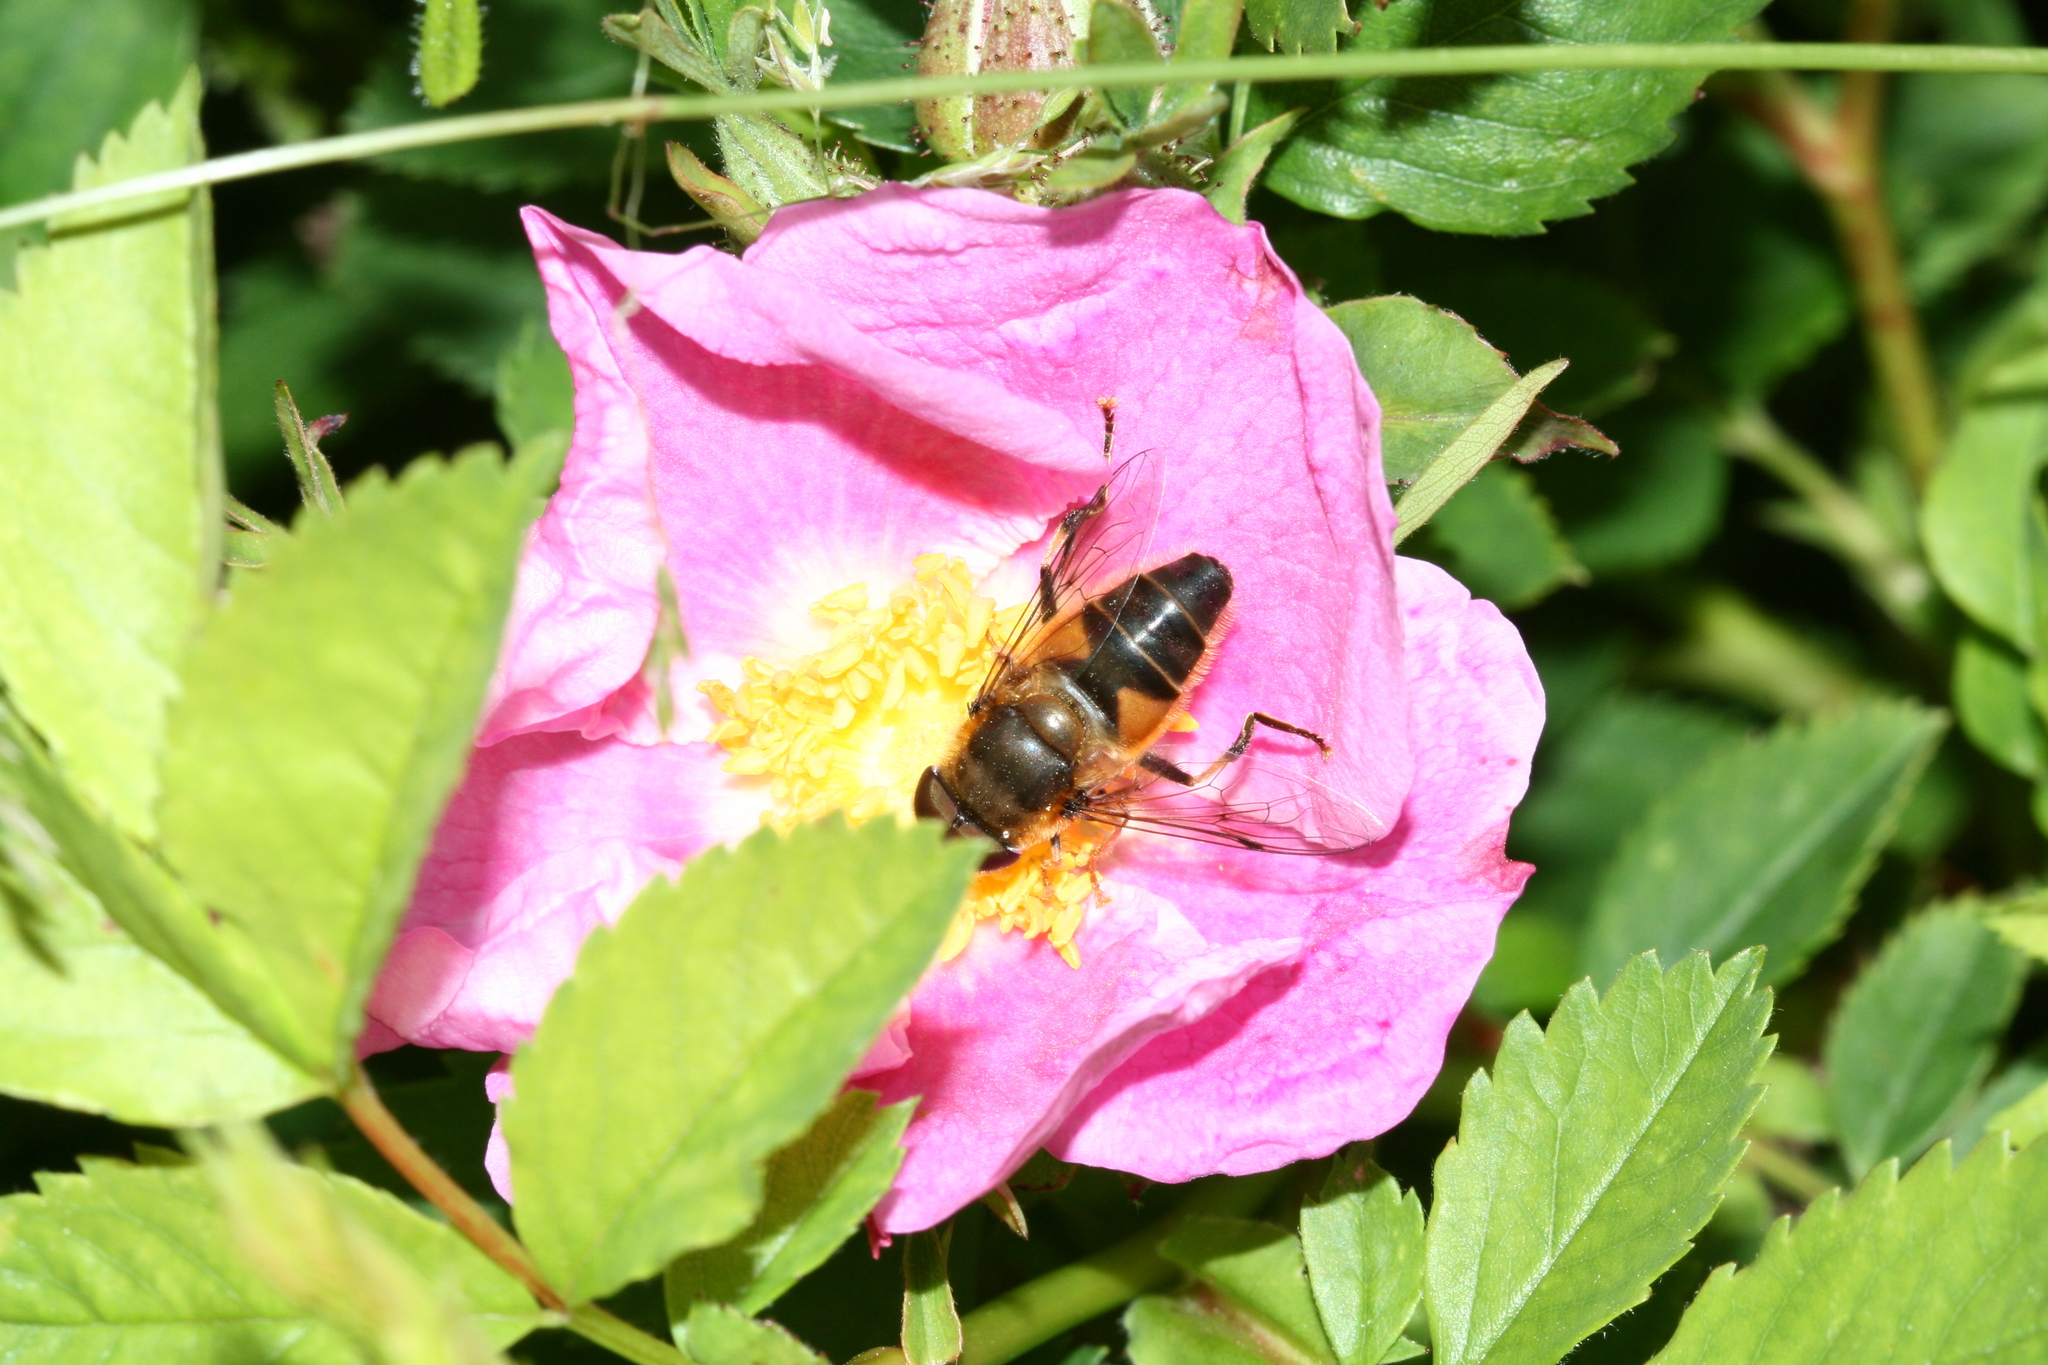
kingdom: Animalia
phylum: Arthropoda
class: Insecta
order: Diptera
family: Syrphidae
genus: Eristalis
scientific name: Eristalis pertinax
